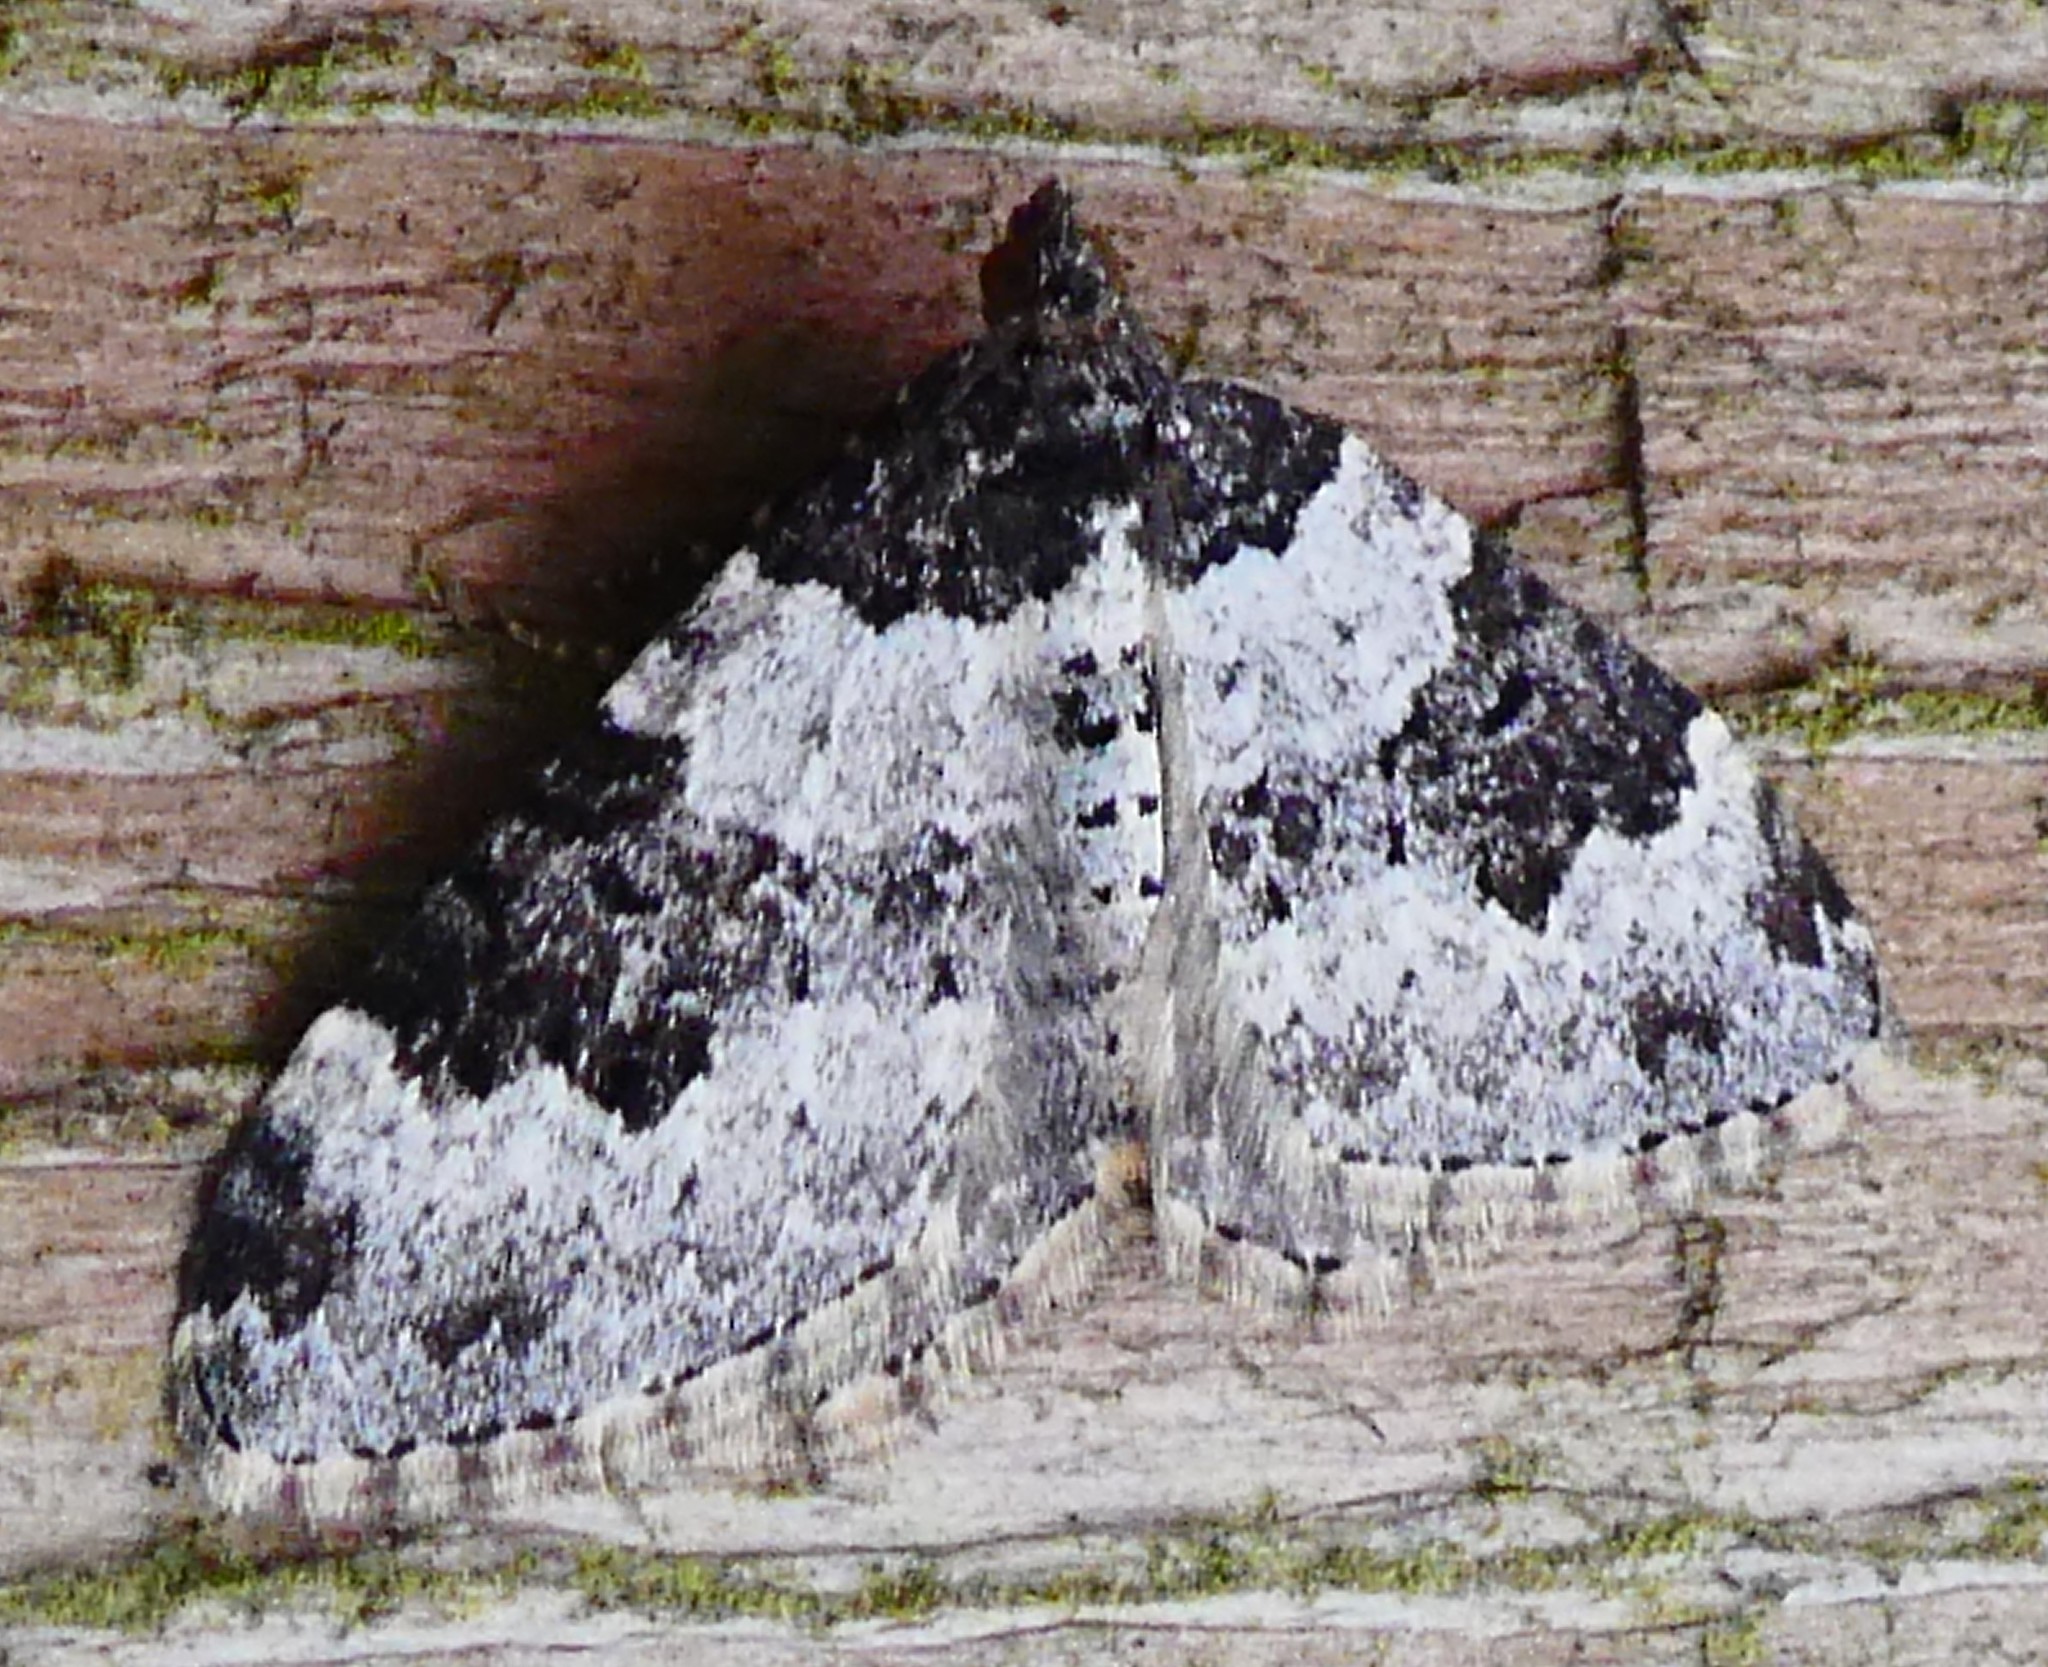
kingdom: Animalia
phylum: Arthropoda
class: Insecta
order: Lepidoptera
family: Geometridae
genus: Xanthorhoe
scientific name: Xanthorhoe fluctuata
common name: Garden carpet
